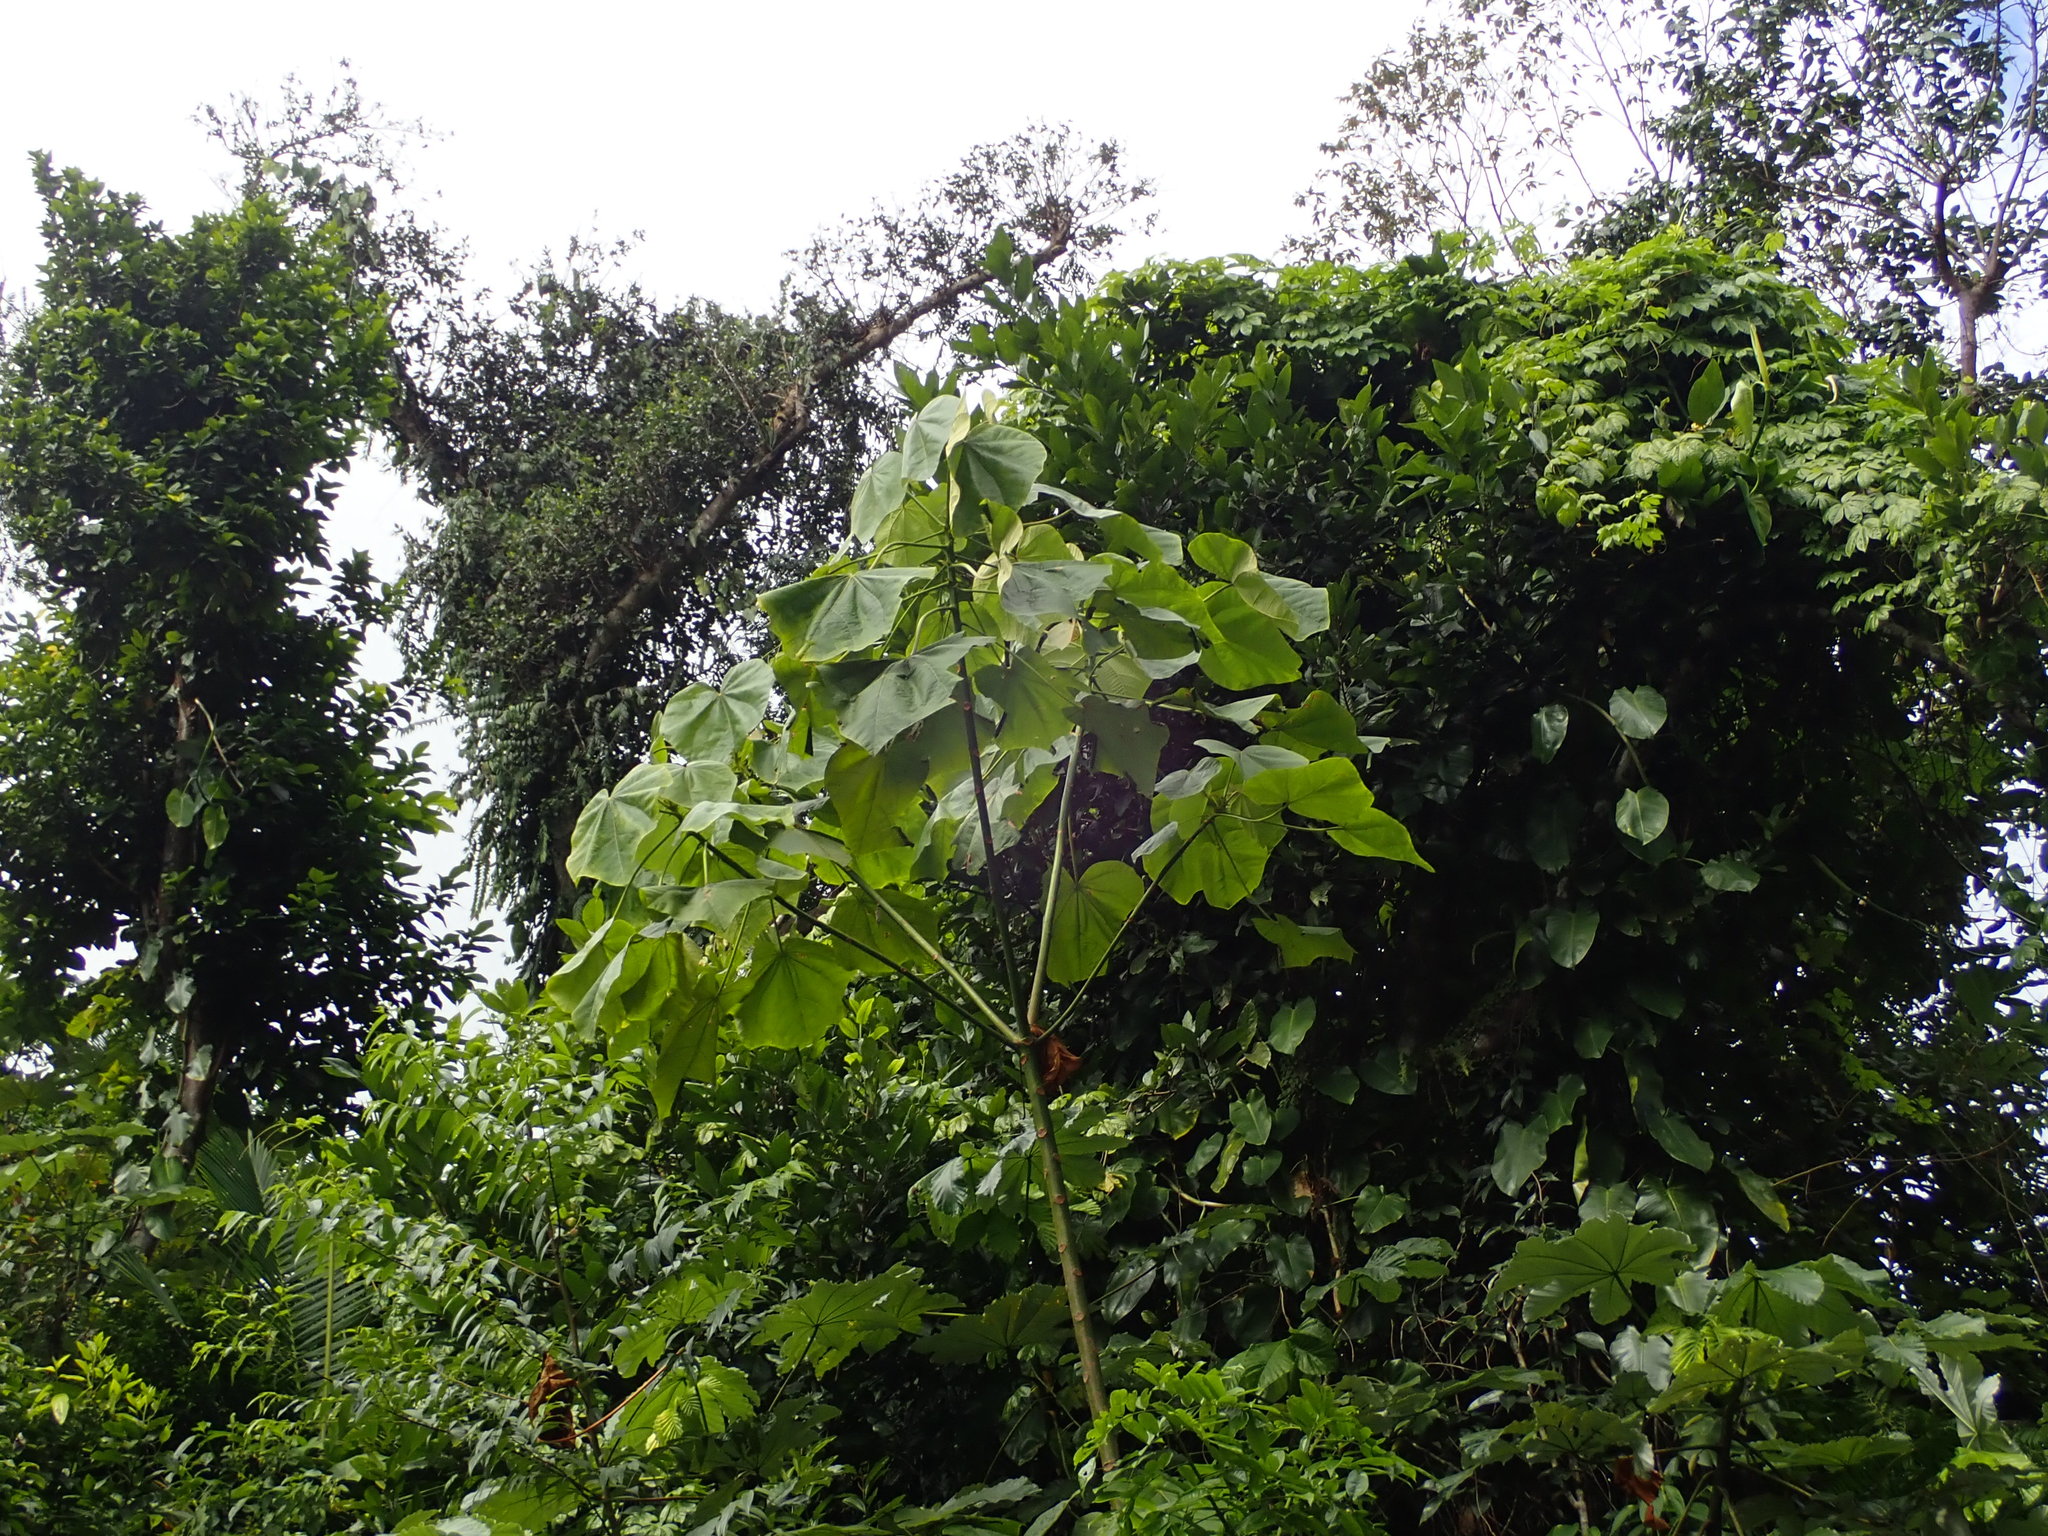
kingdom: Plantae
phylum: Tracheophyta
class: Magnoliopsida
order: Malvales
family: Malvaceae
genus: Ochroma
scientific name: Ochroma pyramidale
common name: Balsa
